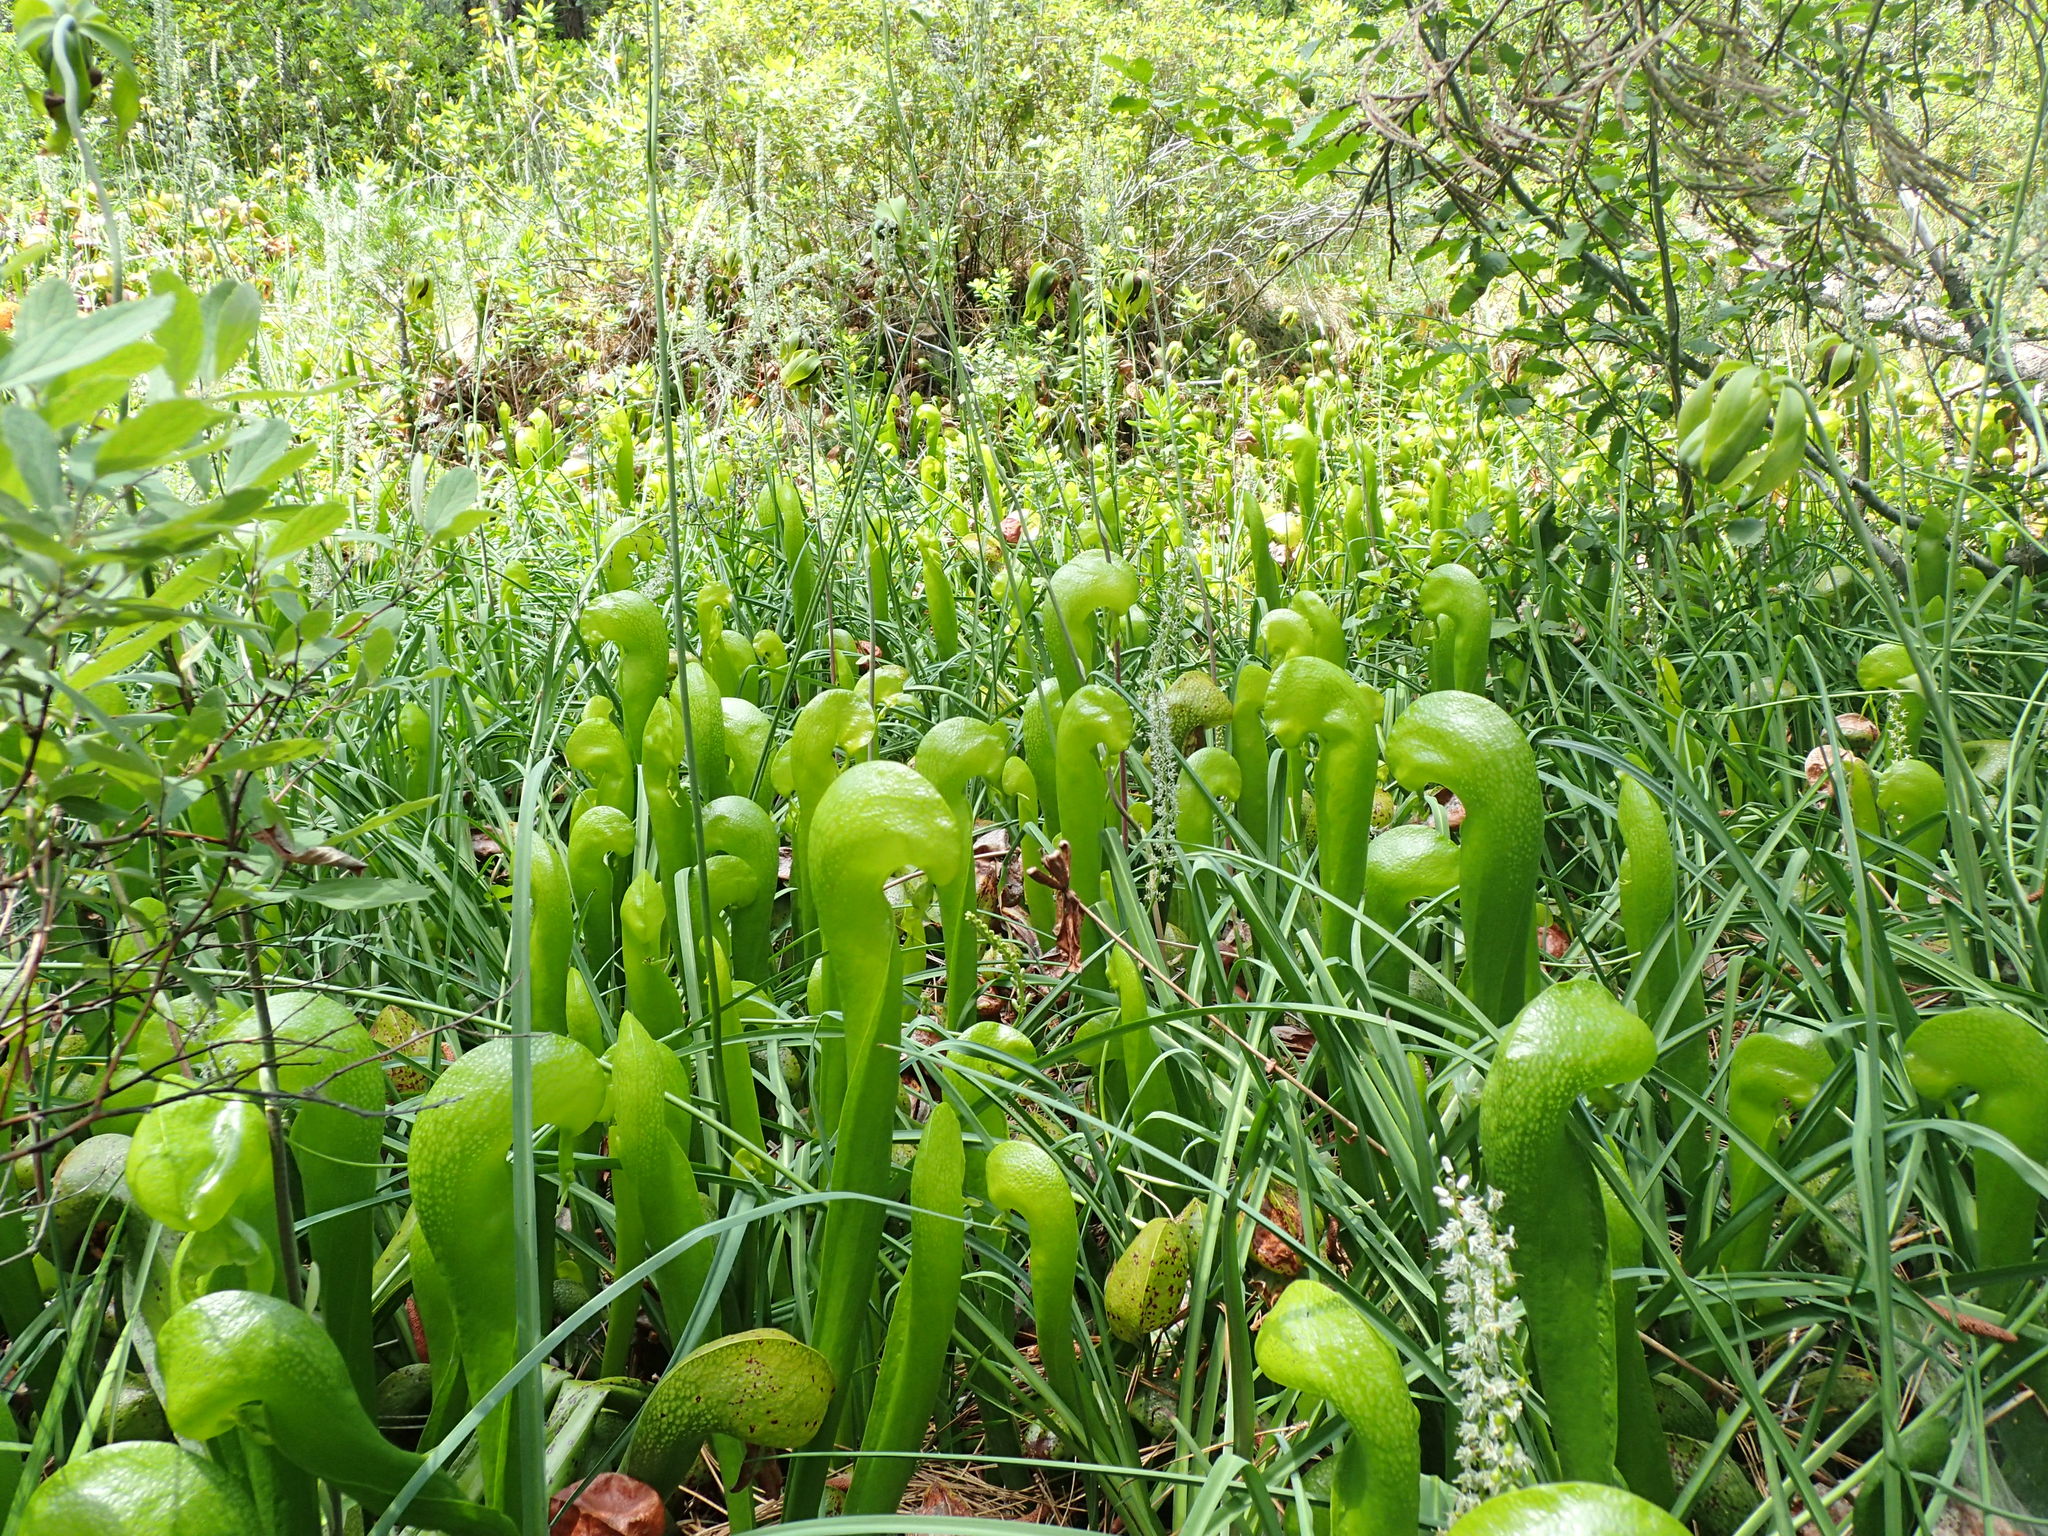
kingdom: Plantae
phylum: Tracheophyta
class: Magnoliopsida
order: Ericales
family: Sarraceniaceae
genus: Darlingtonia
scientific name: Darlingtonia californica
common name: California pitcher plant
